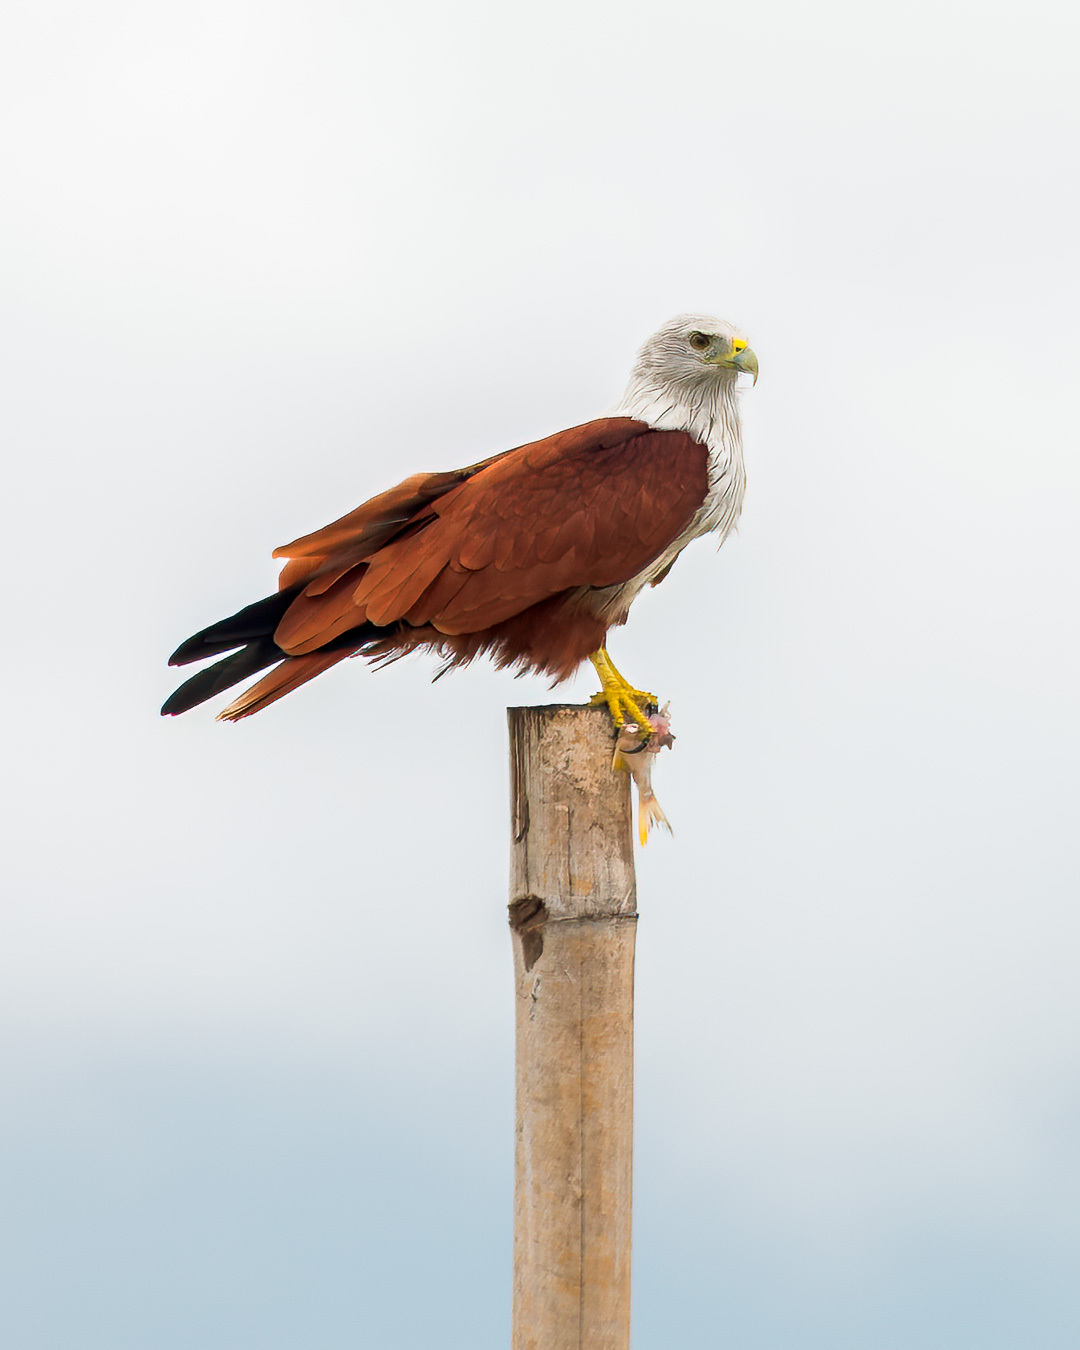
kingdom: Animalia
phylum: Chordata
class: Aves
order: Accipitriformes
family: Accipitridae
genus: Haliastur
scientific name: Haliastur indus
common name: Brahminy kite
